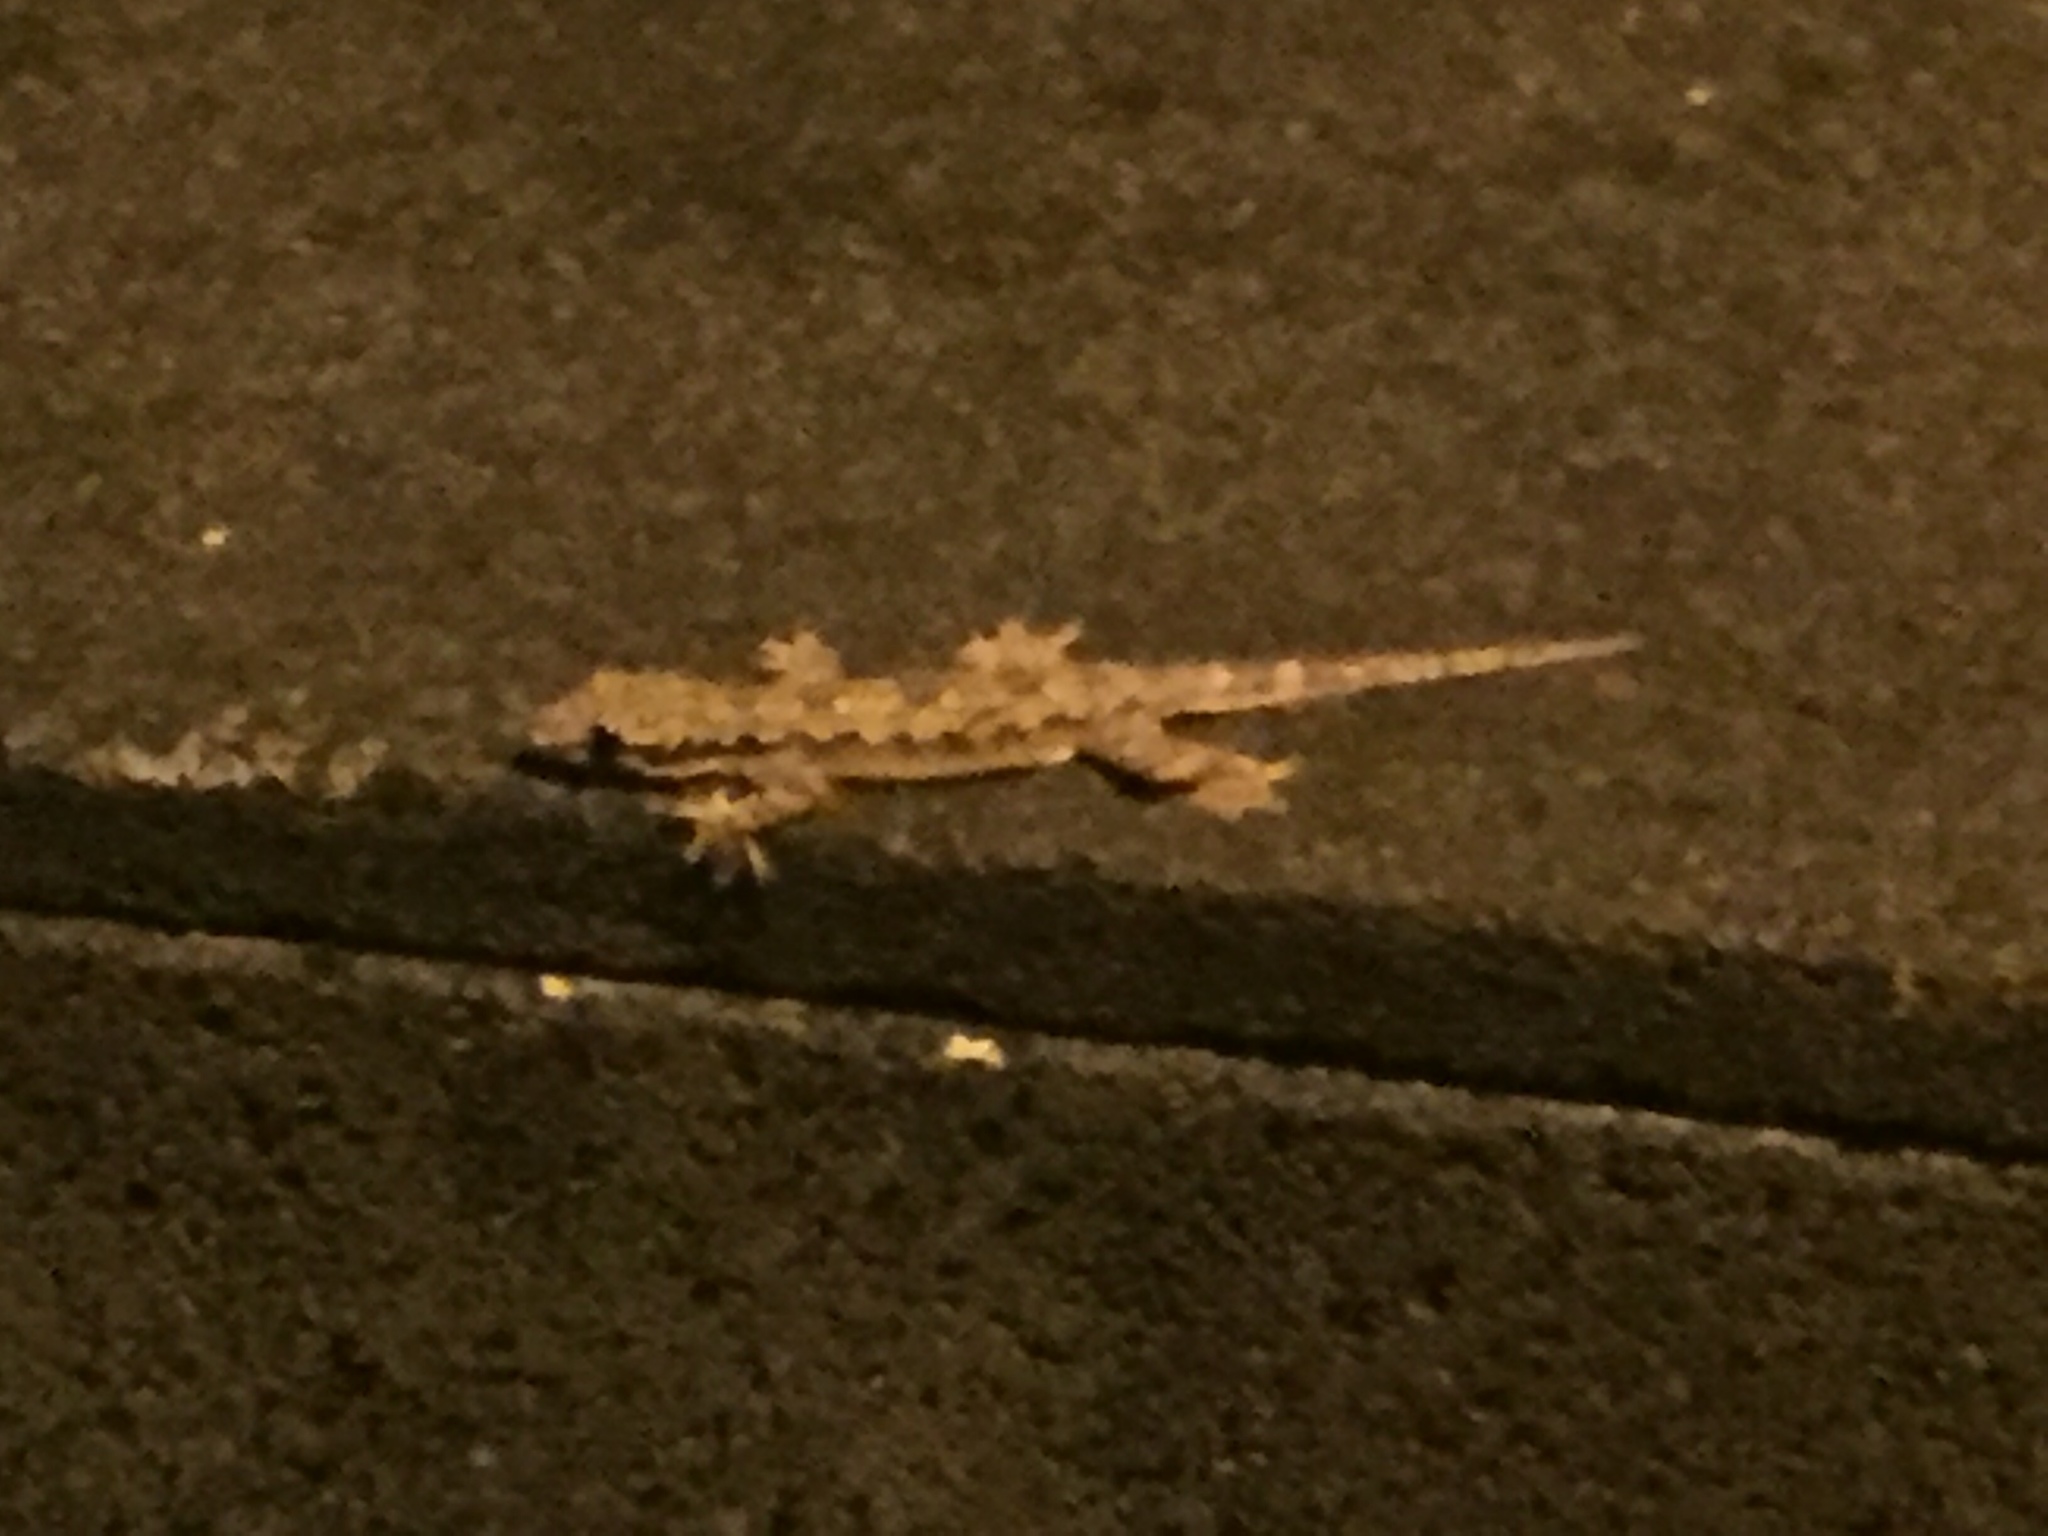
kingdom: Animalia
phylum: Chordata
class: Squamata
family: Gekkonidae
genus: Hemidactylus
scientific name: Hemidactylus platyurus
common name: Flat-tailed house gecko
